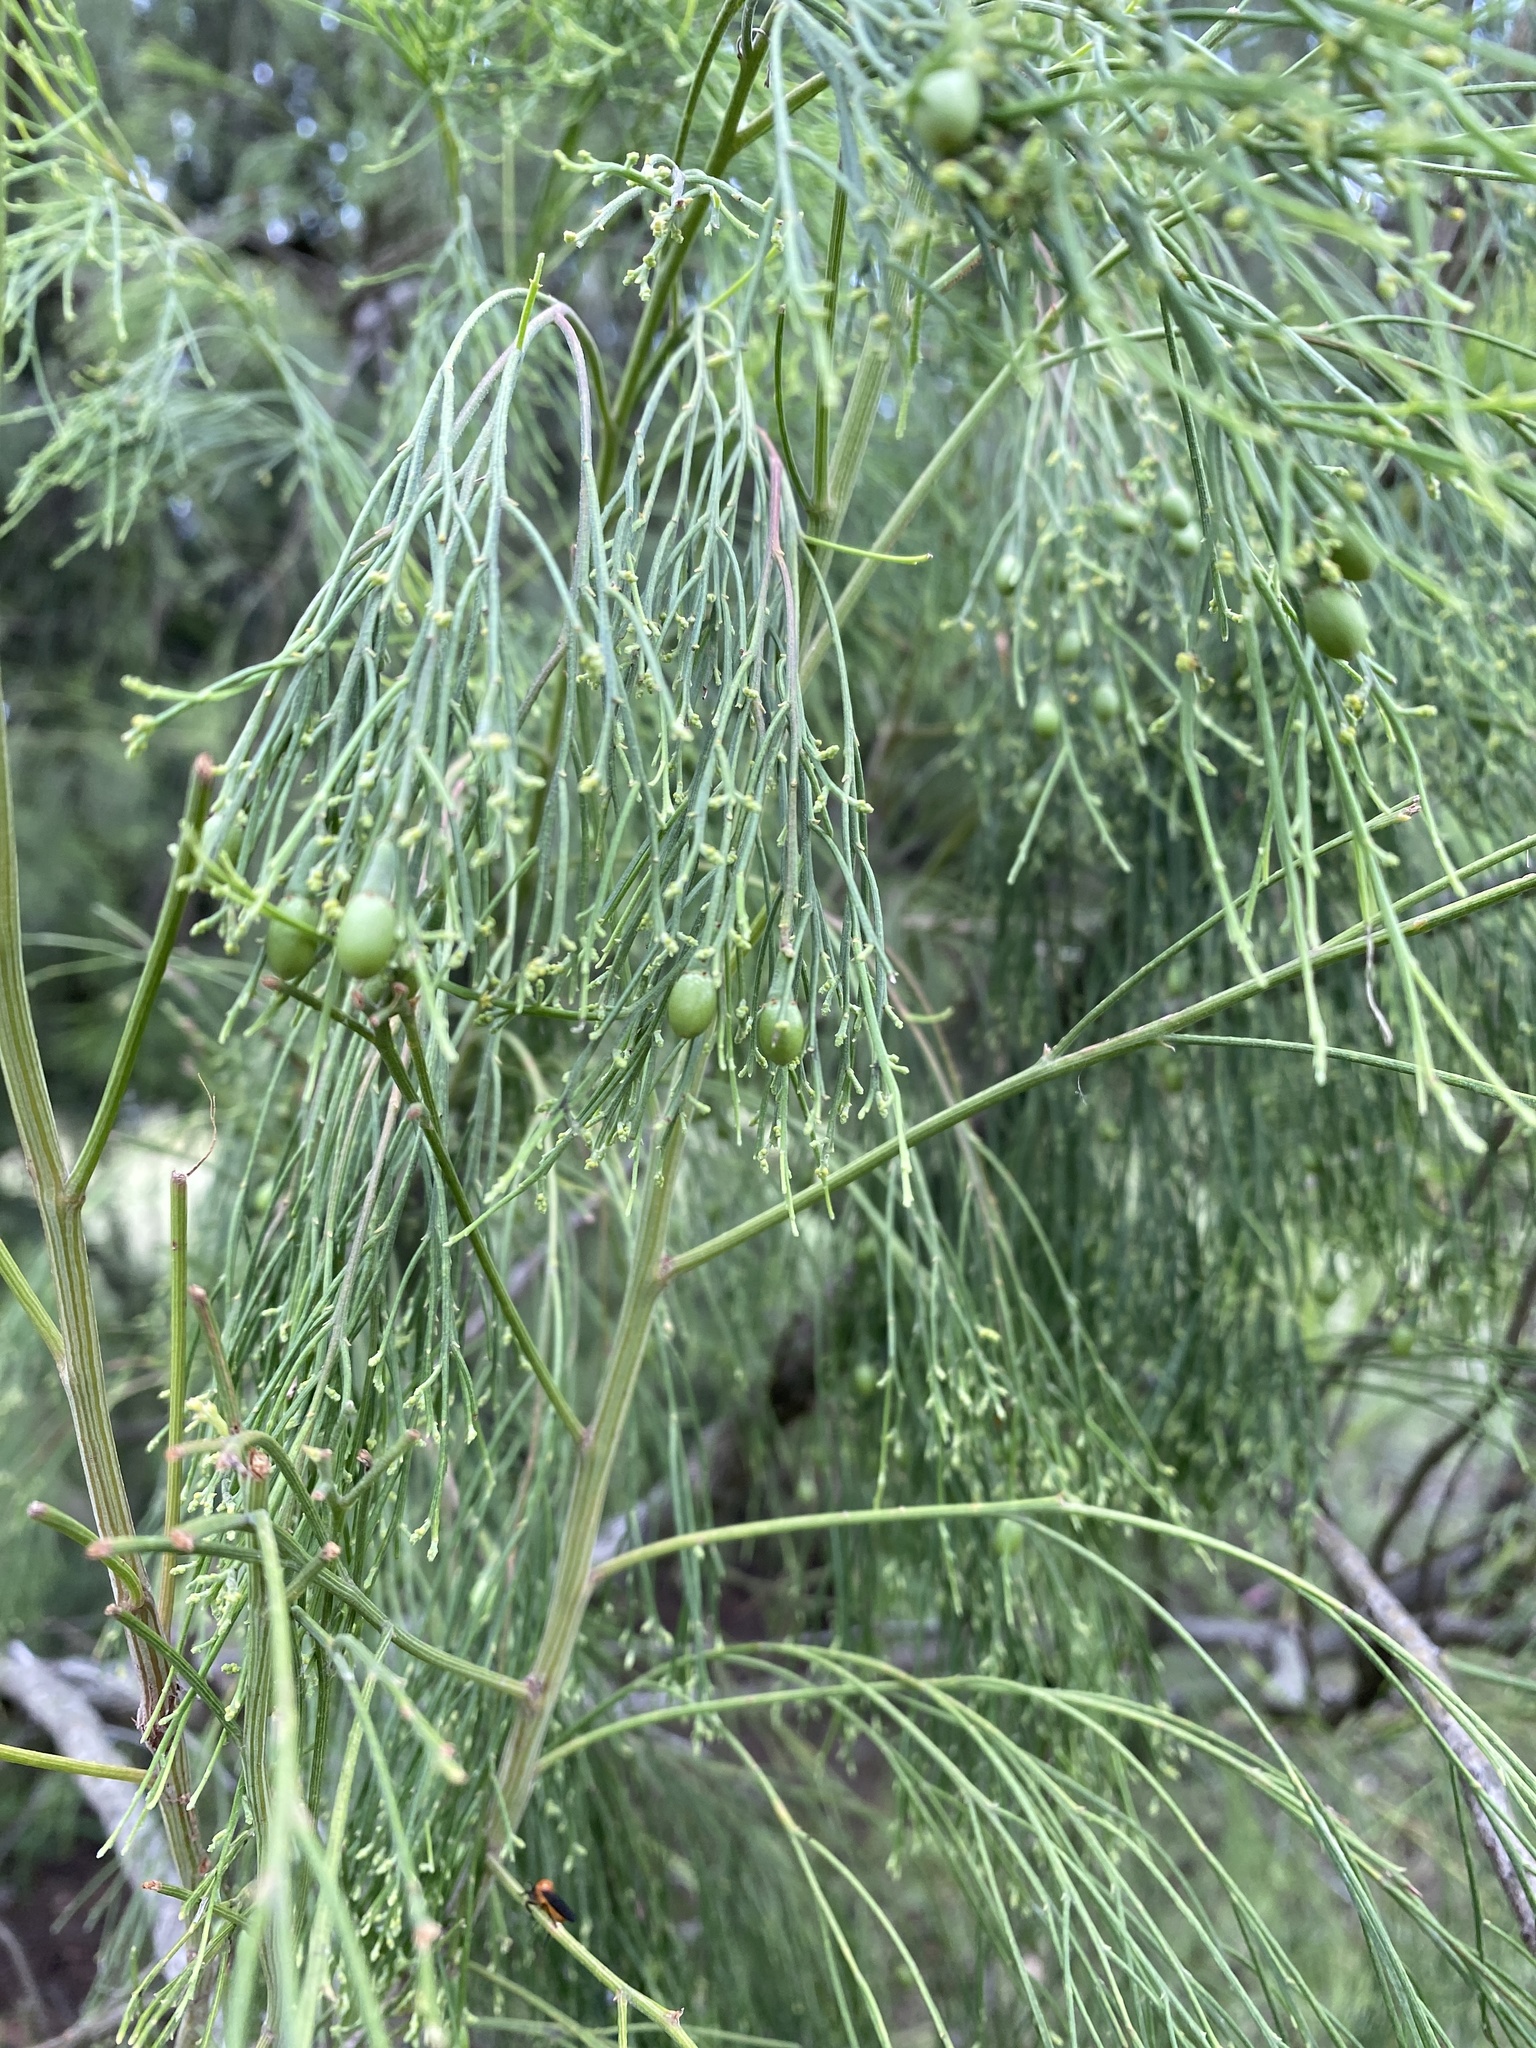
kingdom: Plantae
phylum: Tracheophyta
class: Magnoliopsida
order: Santalales
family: Santalaceae
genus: Exocarpos
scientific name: Exocarpos cupressiformis
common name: Cherry ballart
